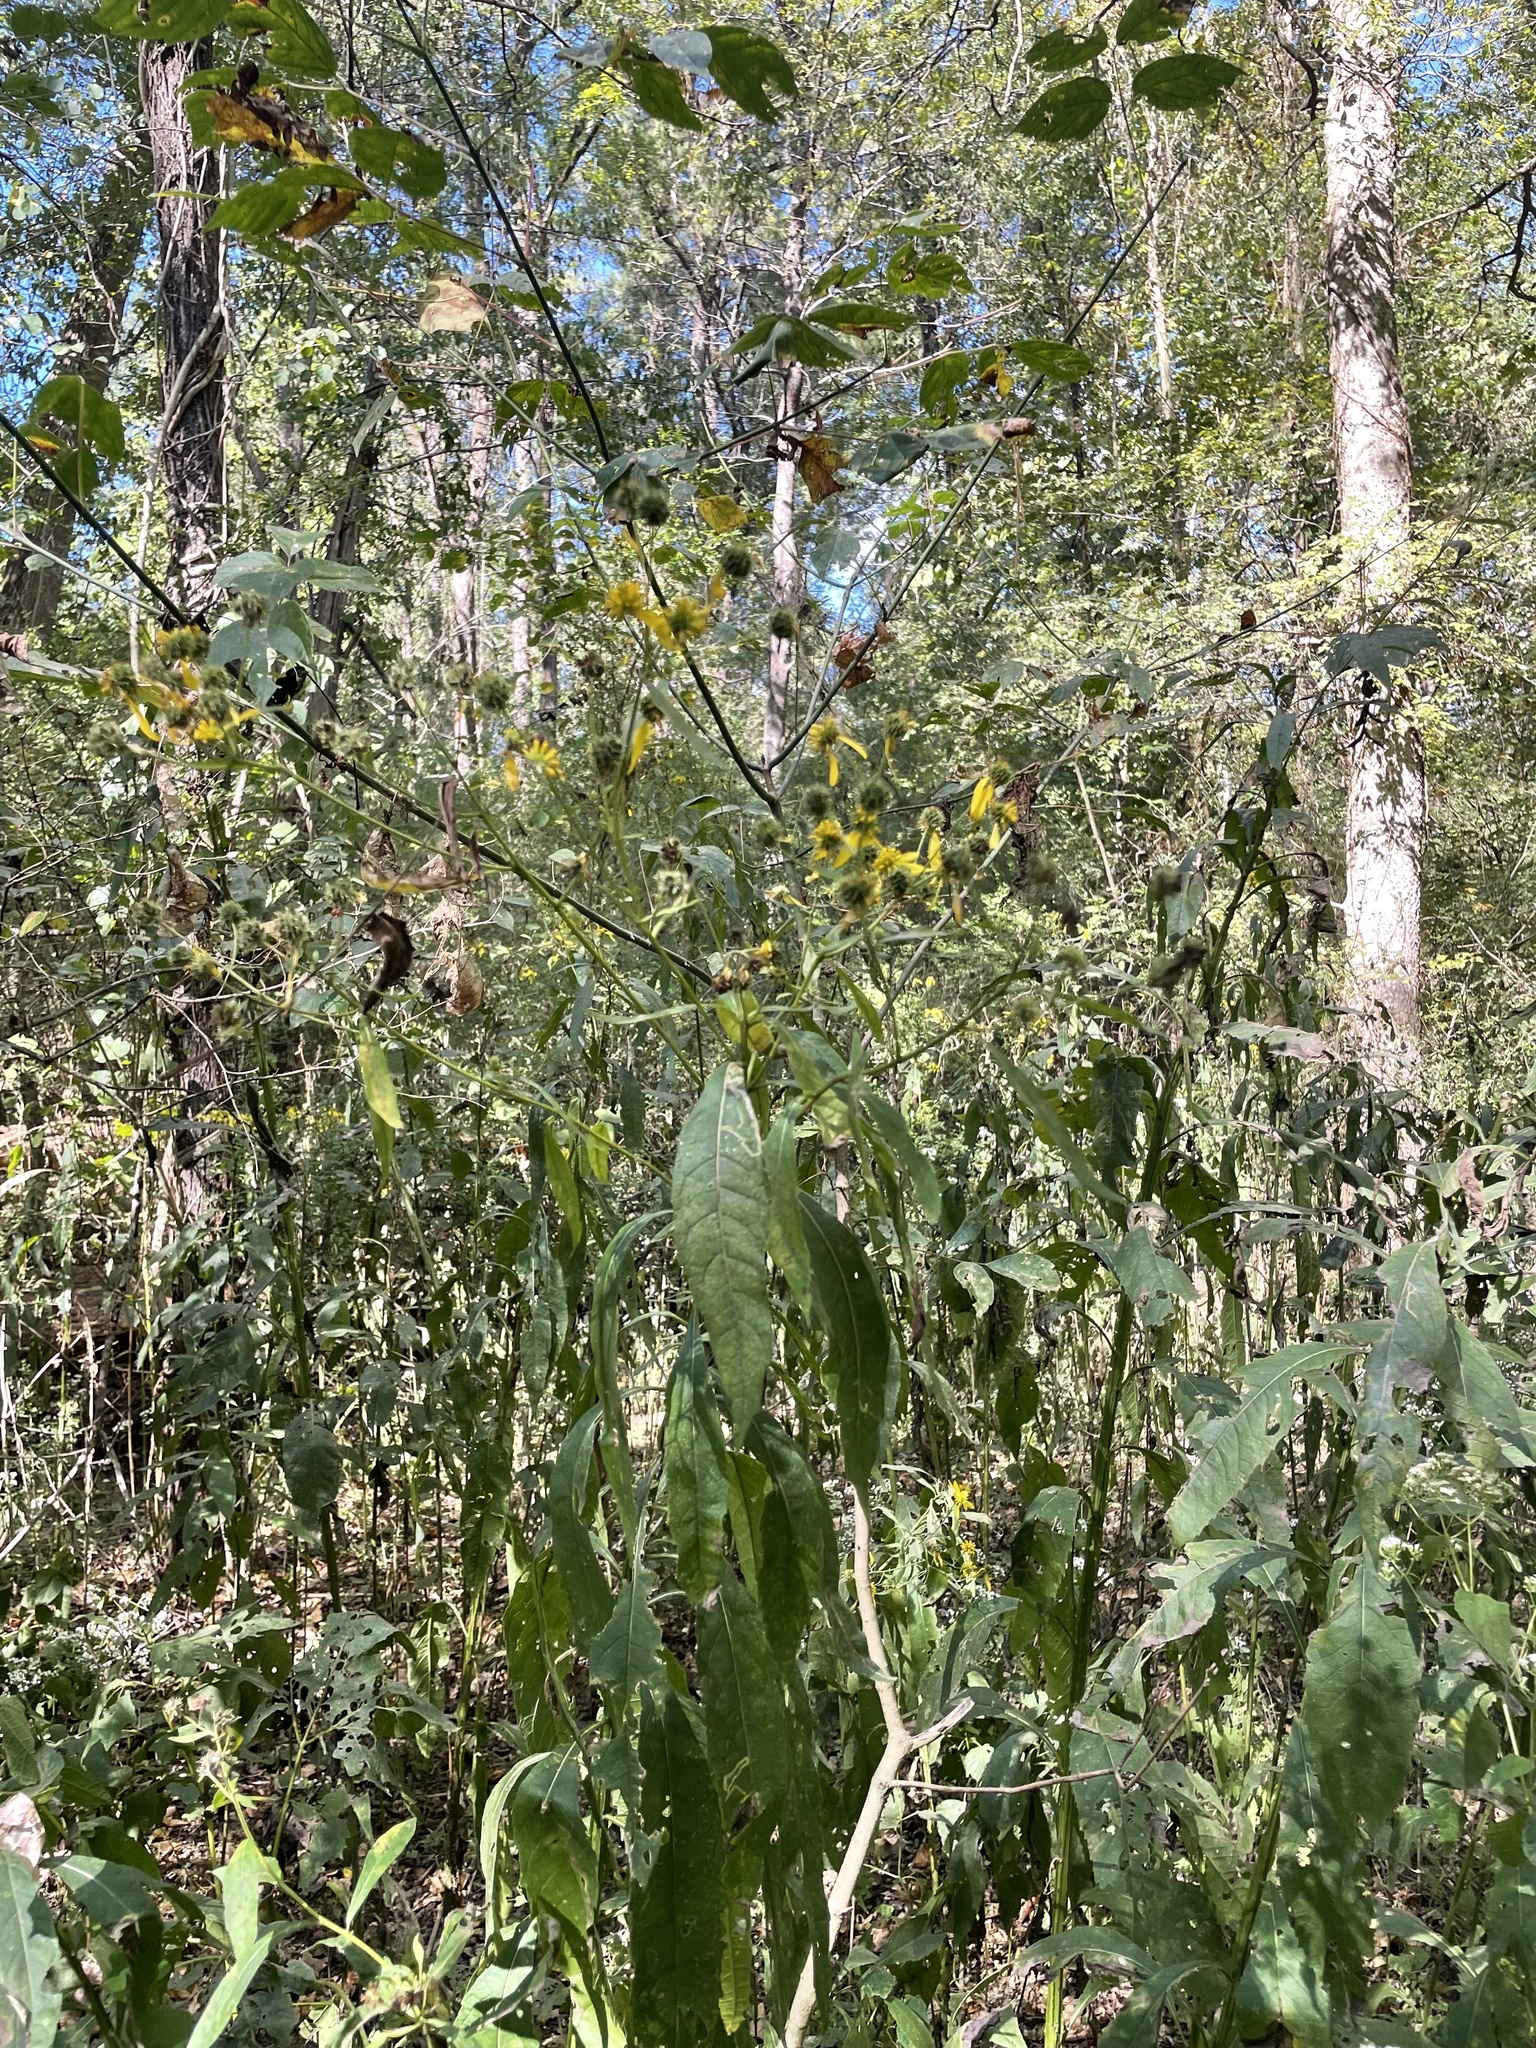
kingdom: Plantae
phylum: Tracheophyta
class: Magnoliopsida
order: Asterales
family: Asteraceae
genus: Verbesina
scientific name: Verbesina alternifolia
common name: Wingstem
